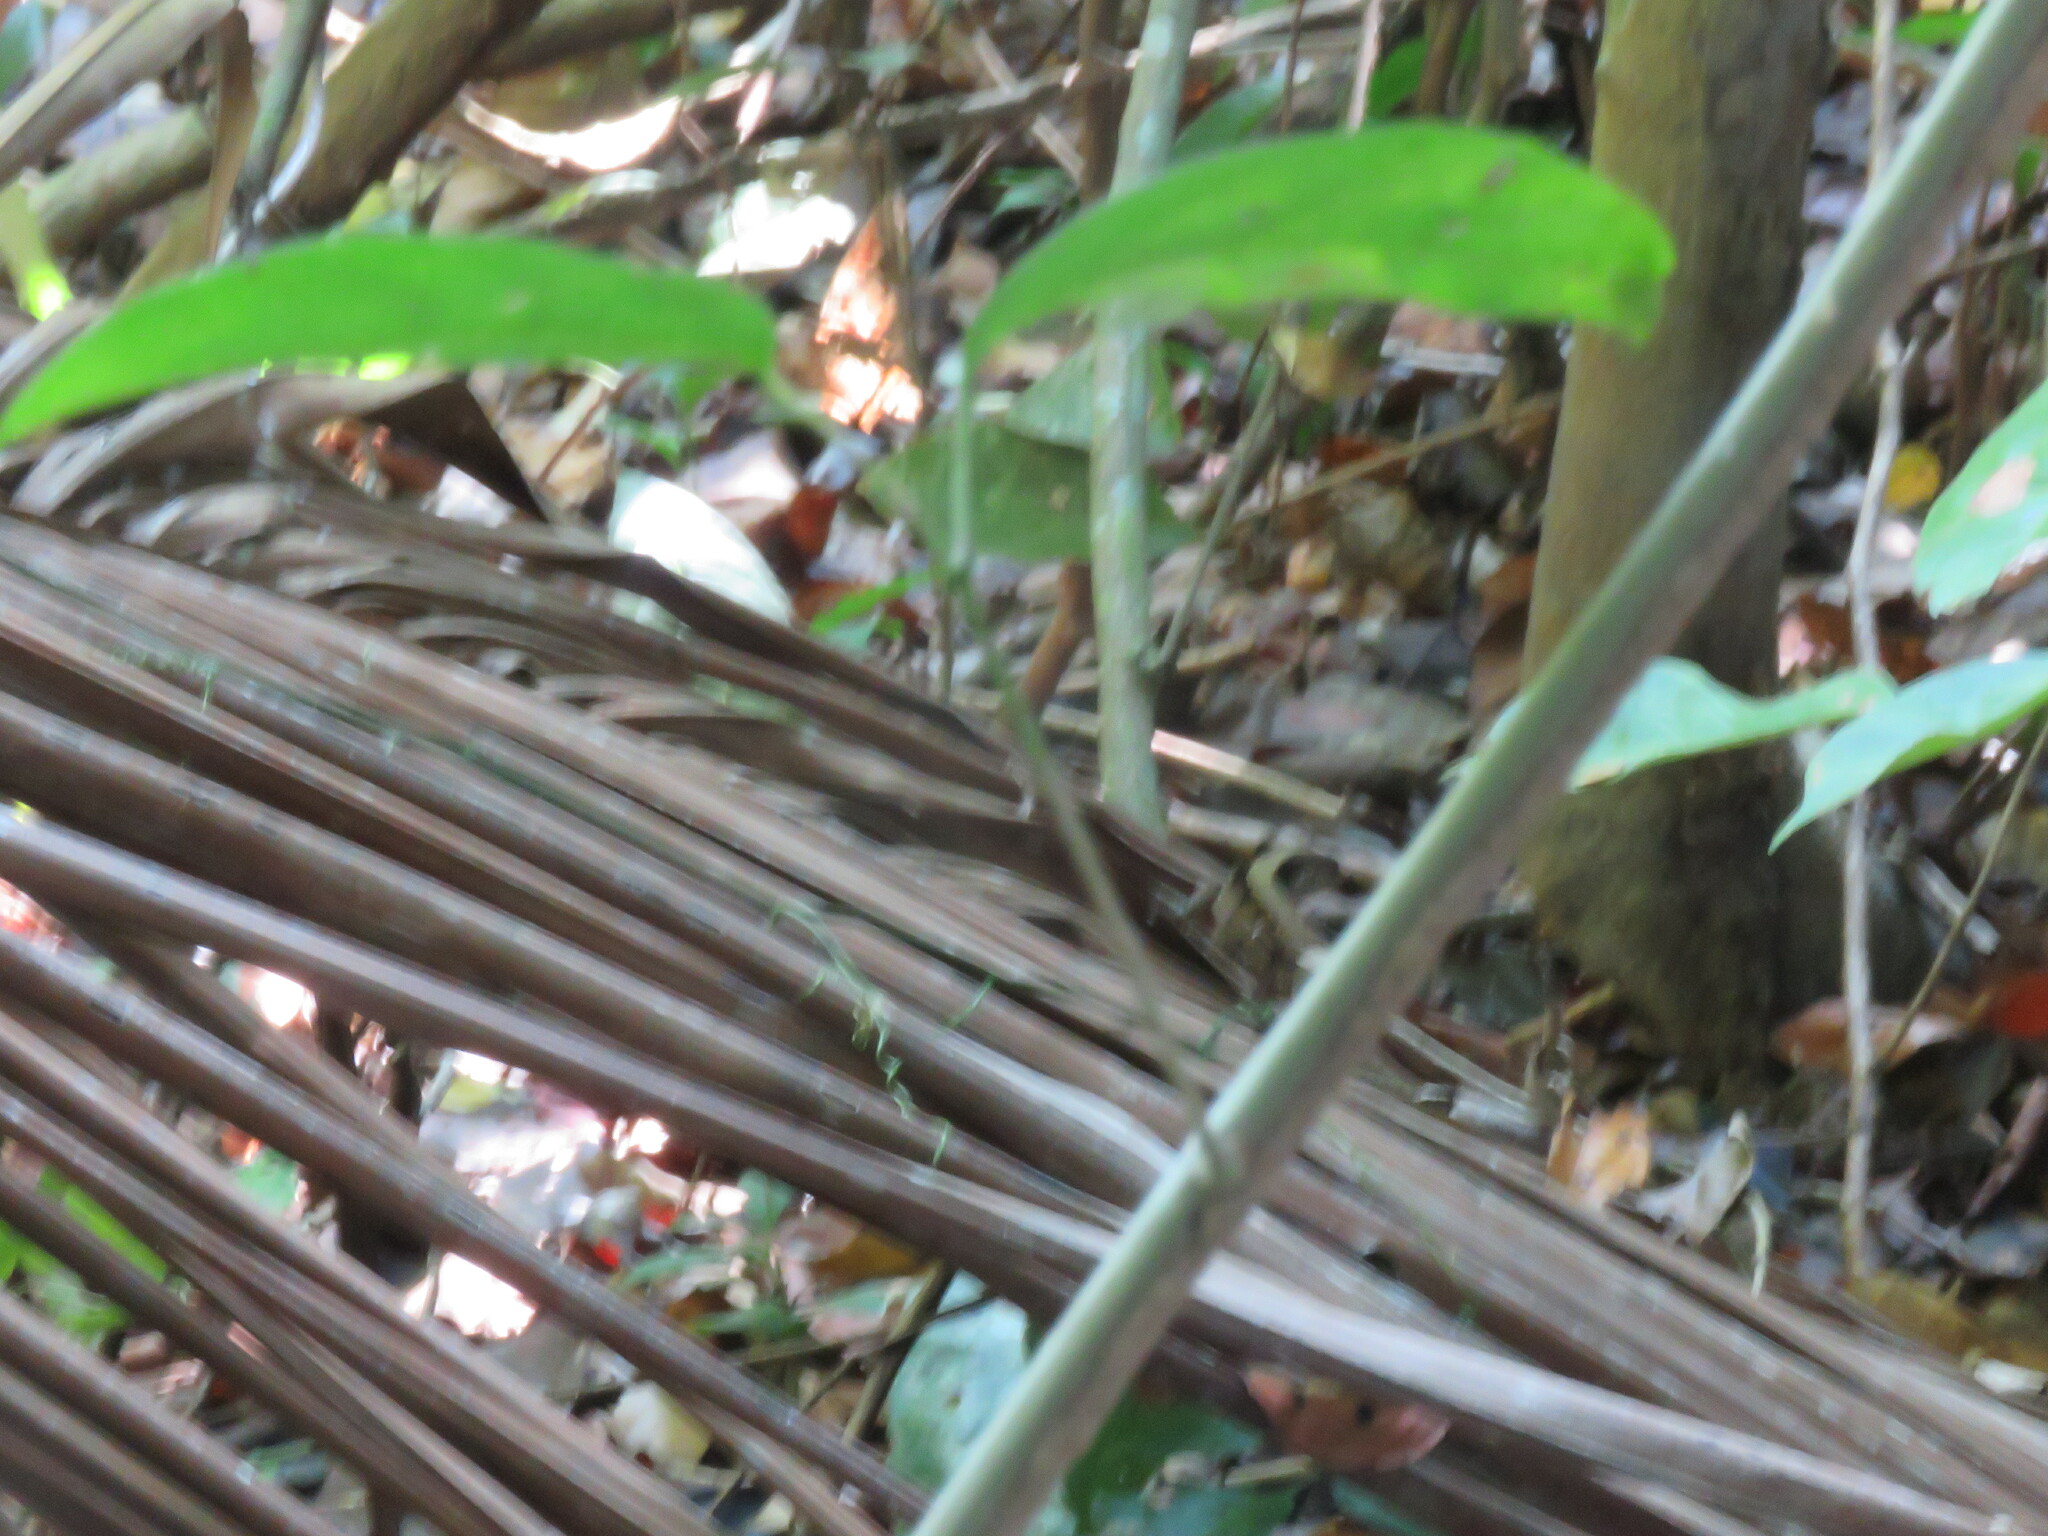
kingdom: Animalia
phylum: Chordata
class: Squamata
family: Teiidae
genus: Kentropyx
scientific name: Kentropyx pelviceps
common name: Forest whiptail
